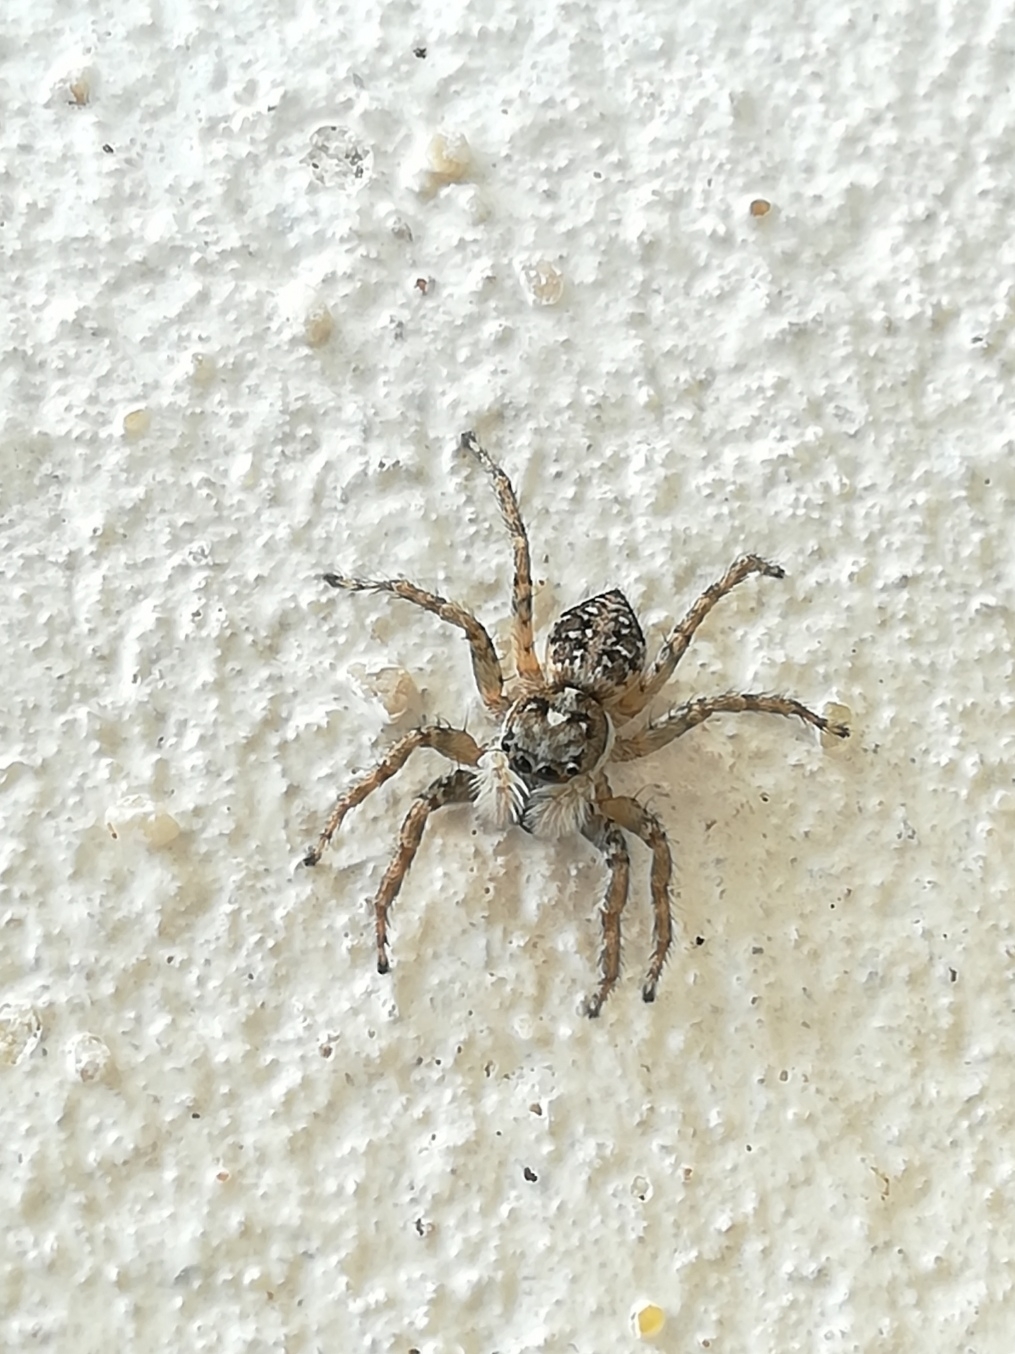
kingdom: Animalia
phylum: Arthropoda
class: Arachnida
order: Araneae
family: Salticidae
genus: Menemerus
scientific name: Menemerus semilimbatus
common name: Jumping spider
